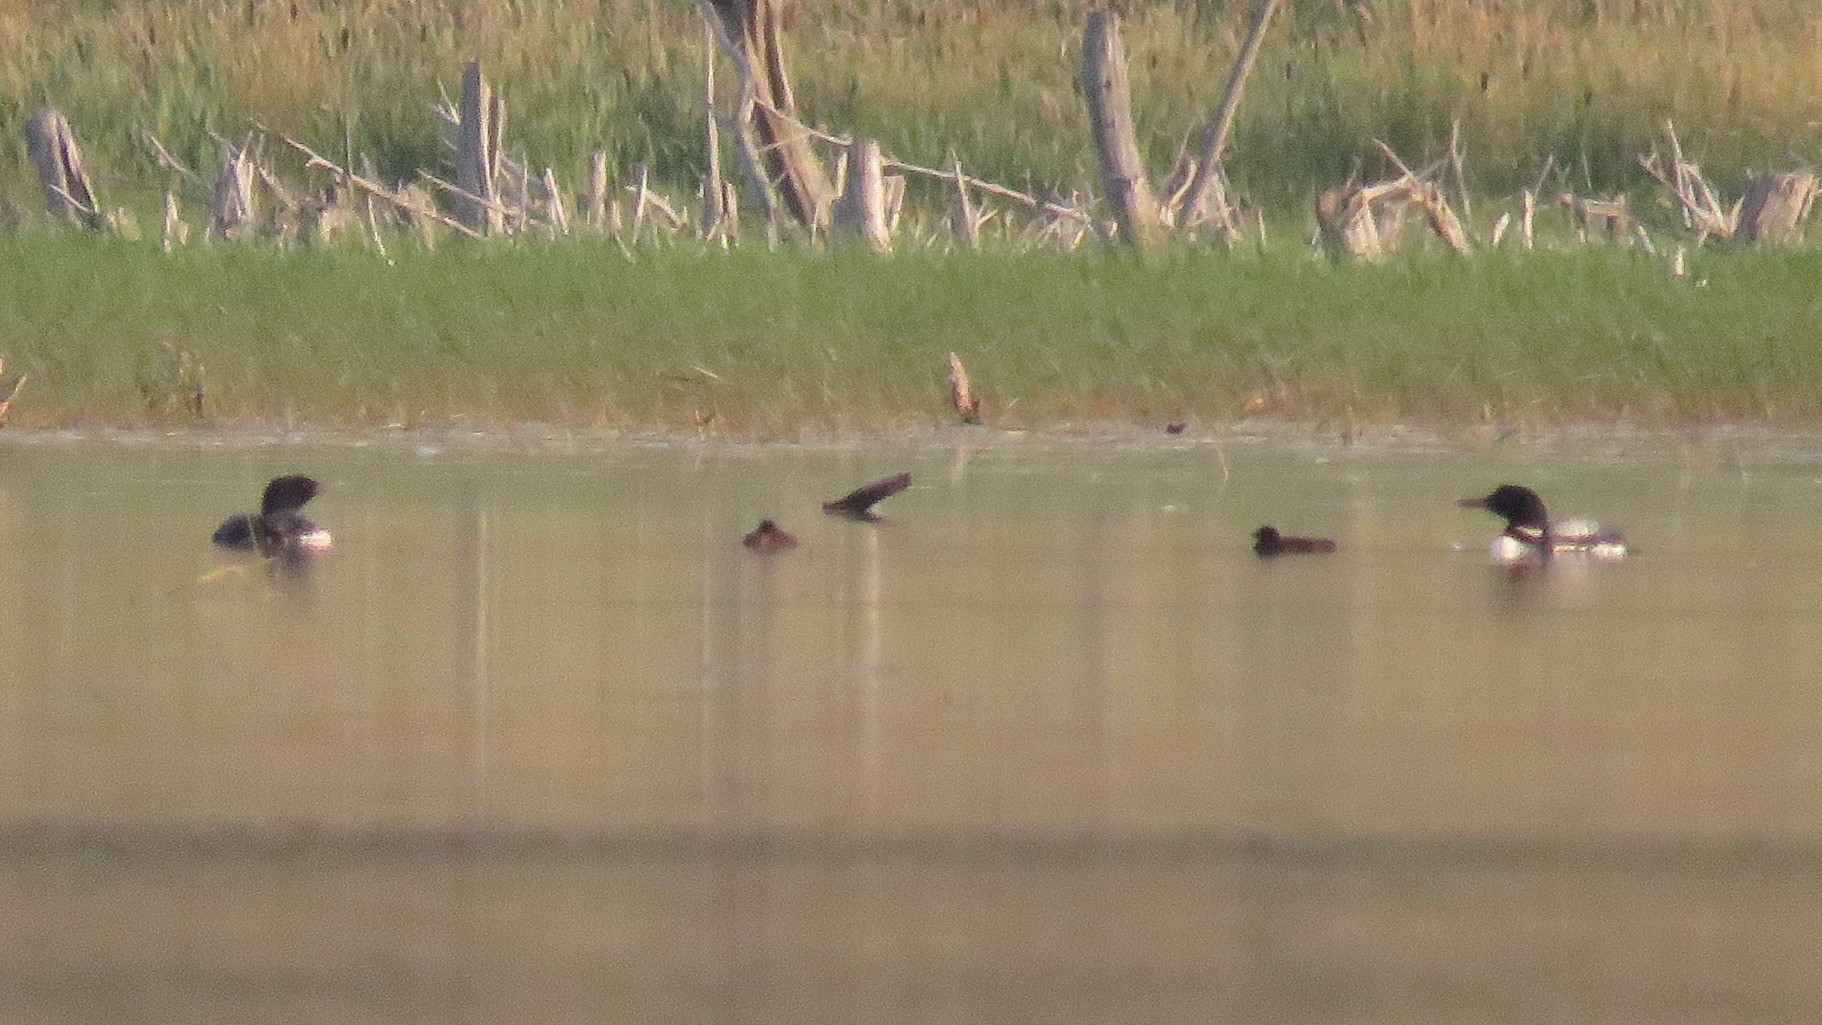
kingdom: Animalia
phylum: Chordata
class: Aves
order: Gaviiformes
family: Gaviidae
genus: Gavia
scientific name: Gavia immer
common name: Common loon
